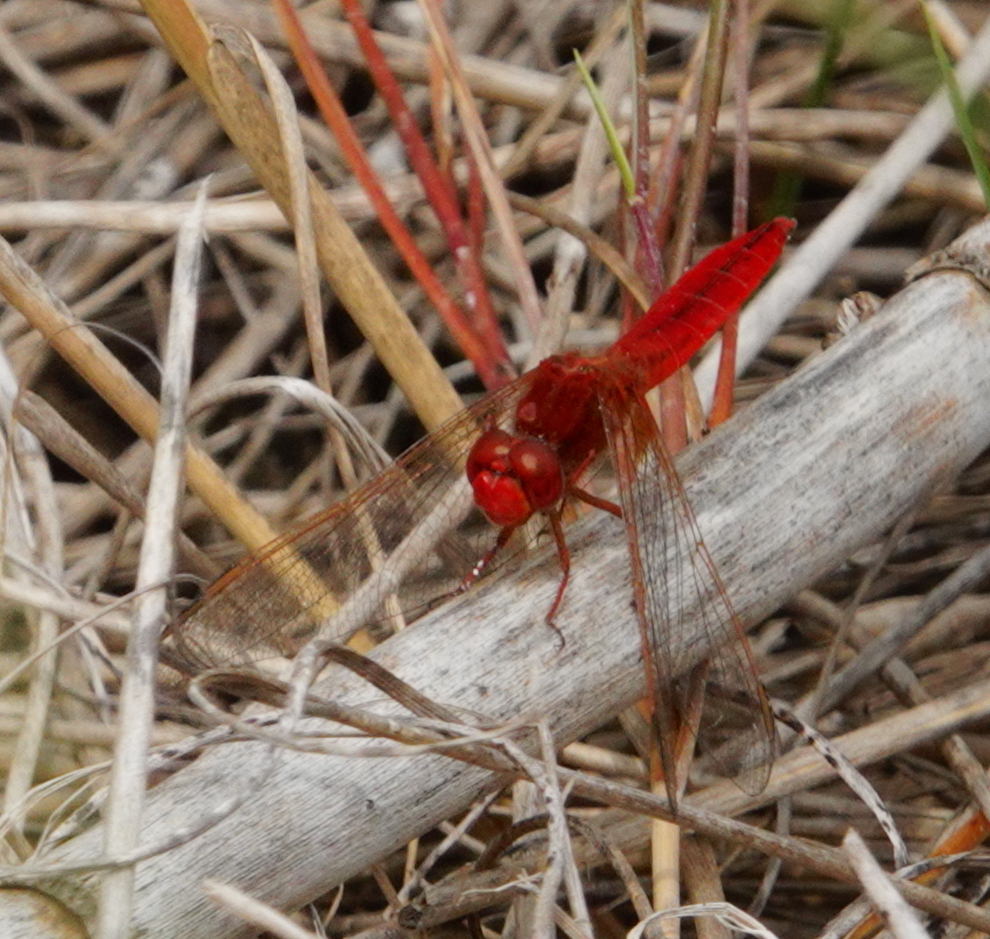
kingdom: Animalia
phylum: Arthropoda
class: Insecta
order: Odonata
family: Libellulidae
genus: Crocothemis
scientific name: Crocothemis erythraea
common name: Scarlet dragonfly
